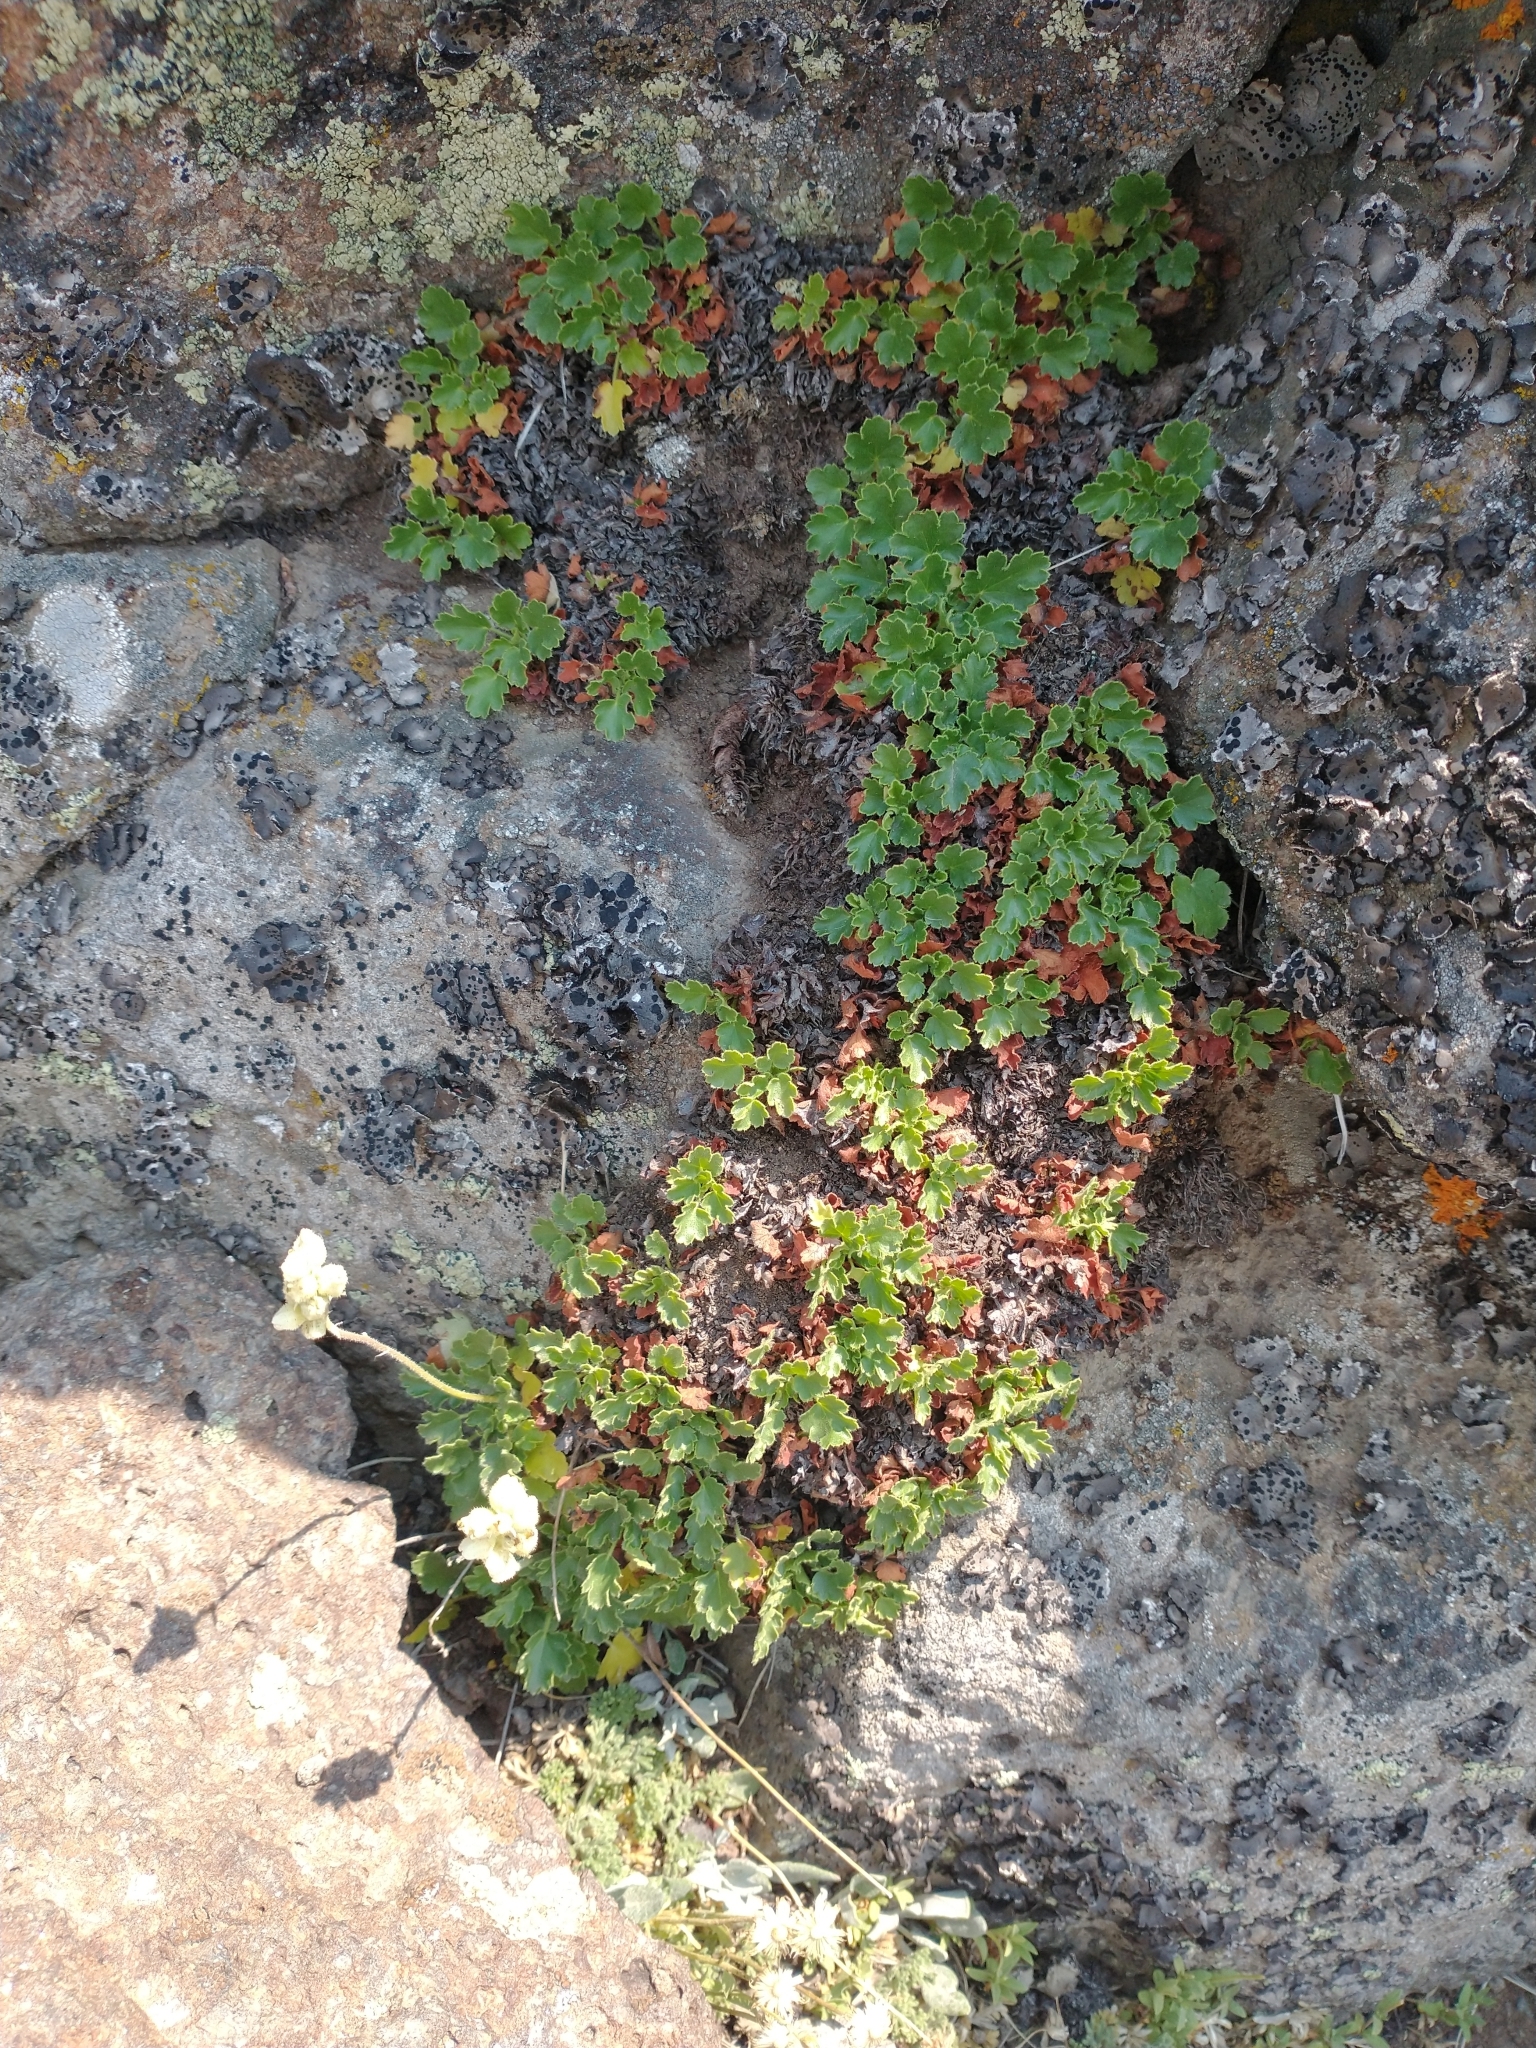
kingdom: Plantae
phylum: Tracheophyta
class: Magnoliopsida
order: Saxifragales
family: Saxifragaceae
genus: Heuchera
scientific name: Heuchera cylindrica
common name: Mat alumroot
